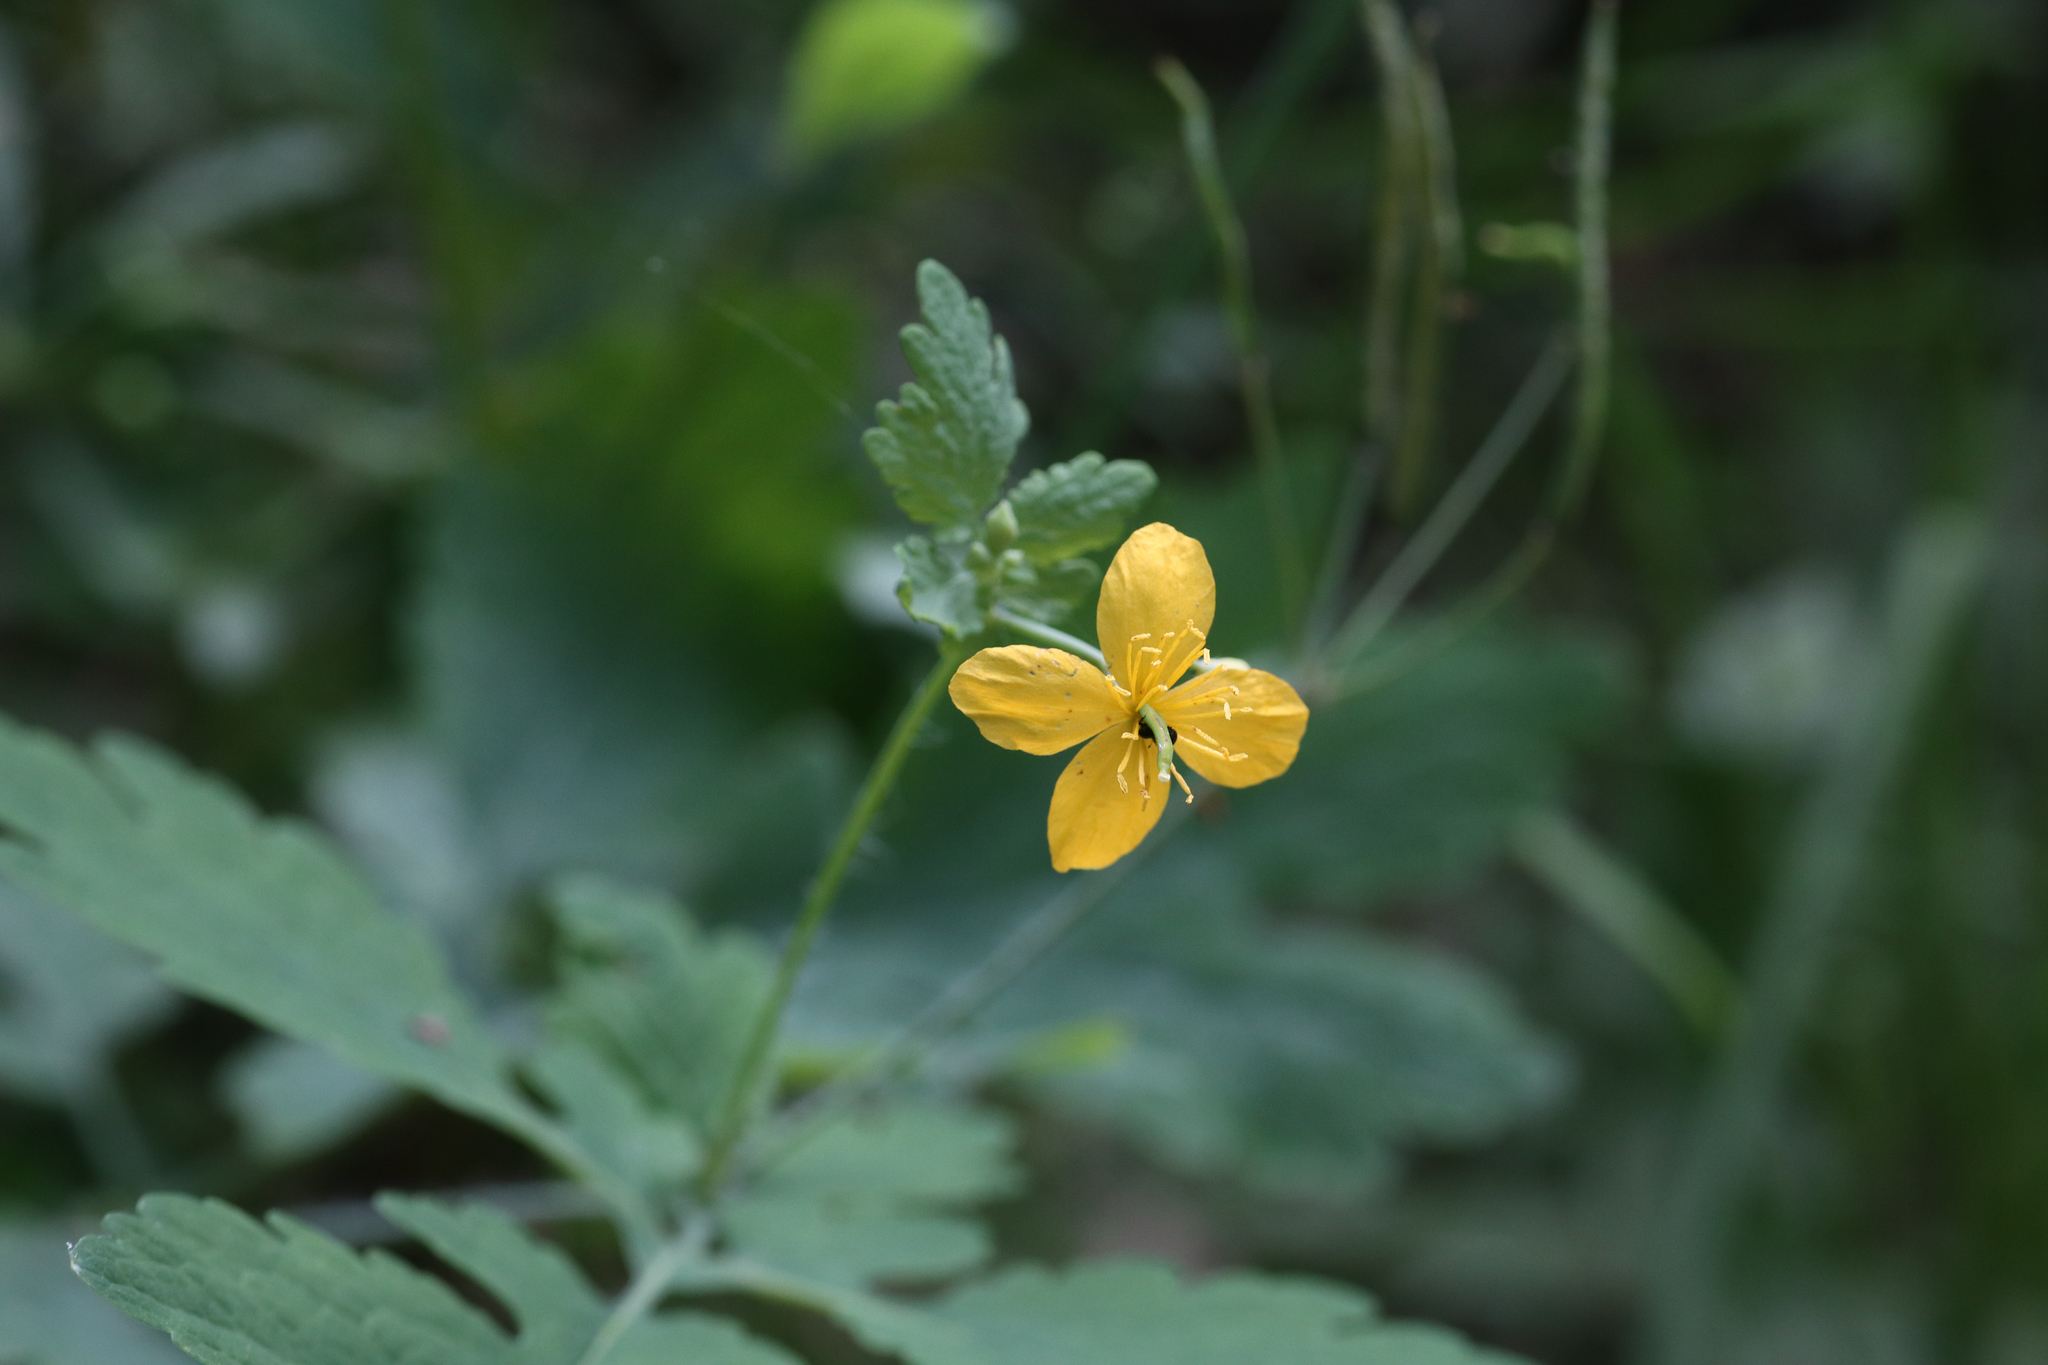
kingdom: Plantae
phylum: Tracheophyta
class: Magnoliopsida
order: Ranunculales
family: Papaveraceae
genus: Chelidonium
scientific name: Chelidonium majus
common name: Greater celandine
